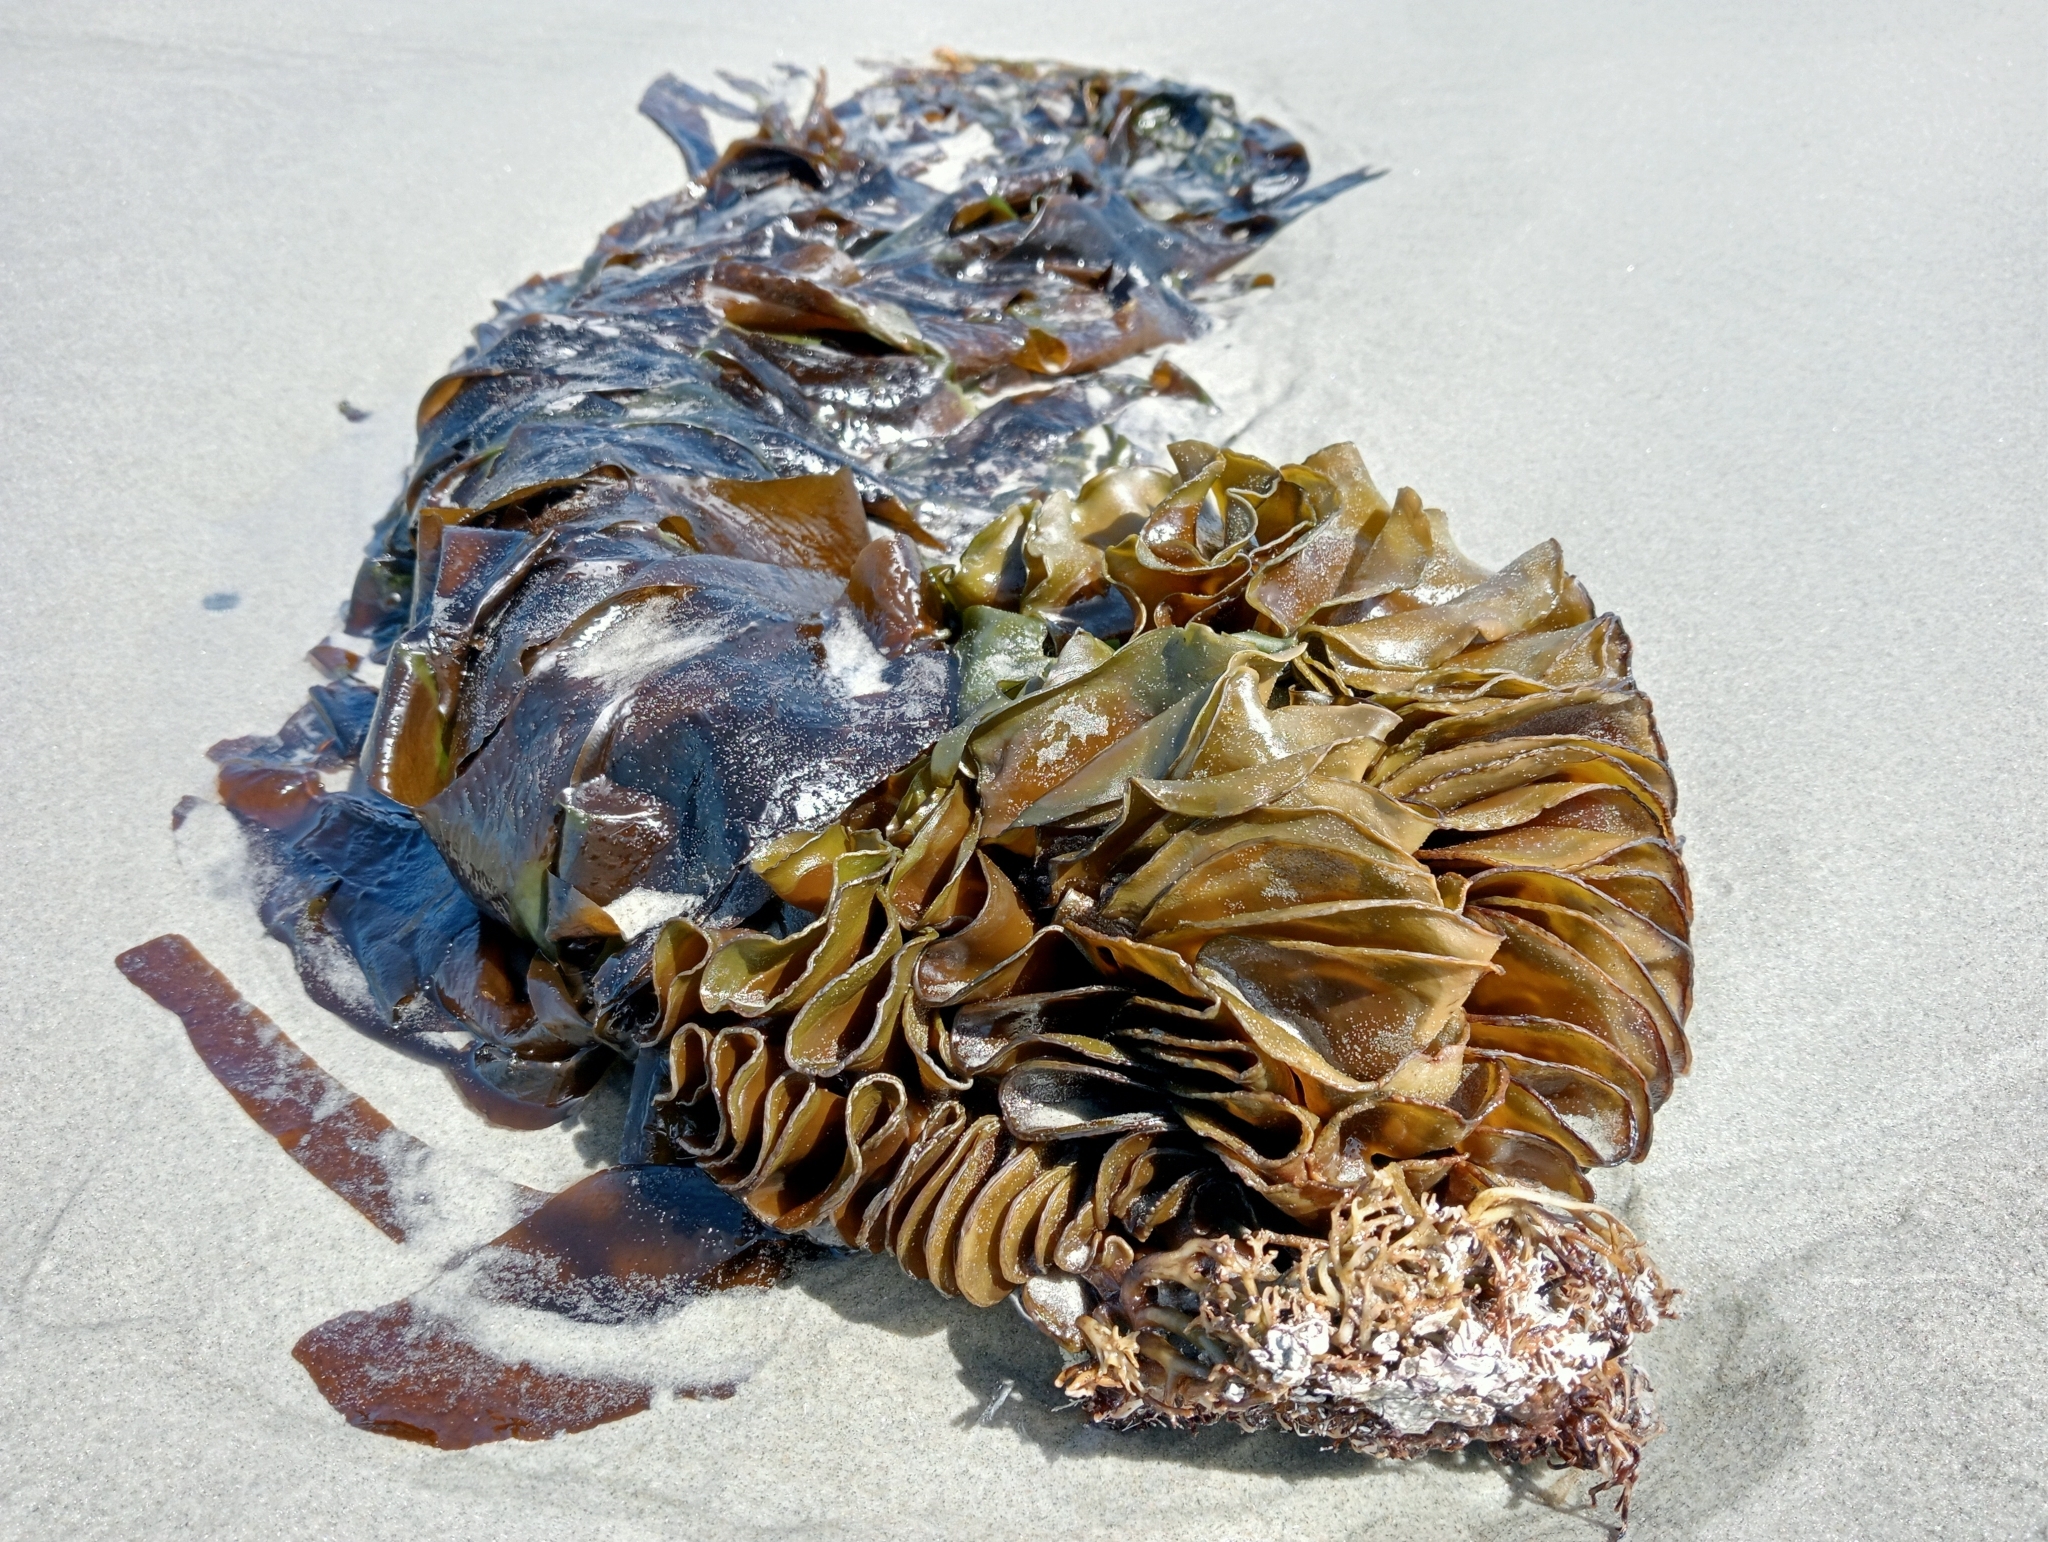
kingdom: Chromista
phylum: Ochrophyta
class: Phaeophyceae
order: Laminariales
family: Alariaceae
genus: Undaria
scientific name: Undaria pinnatifida
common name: Asian kelp
